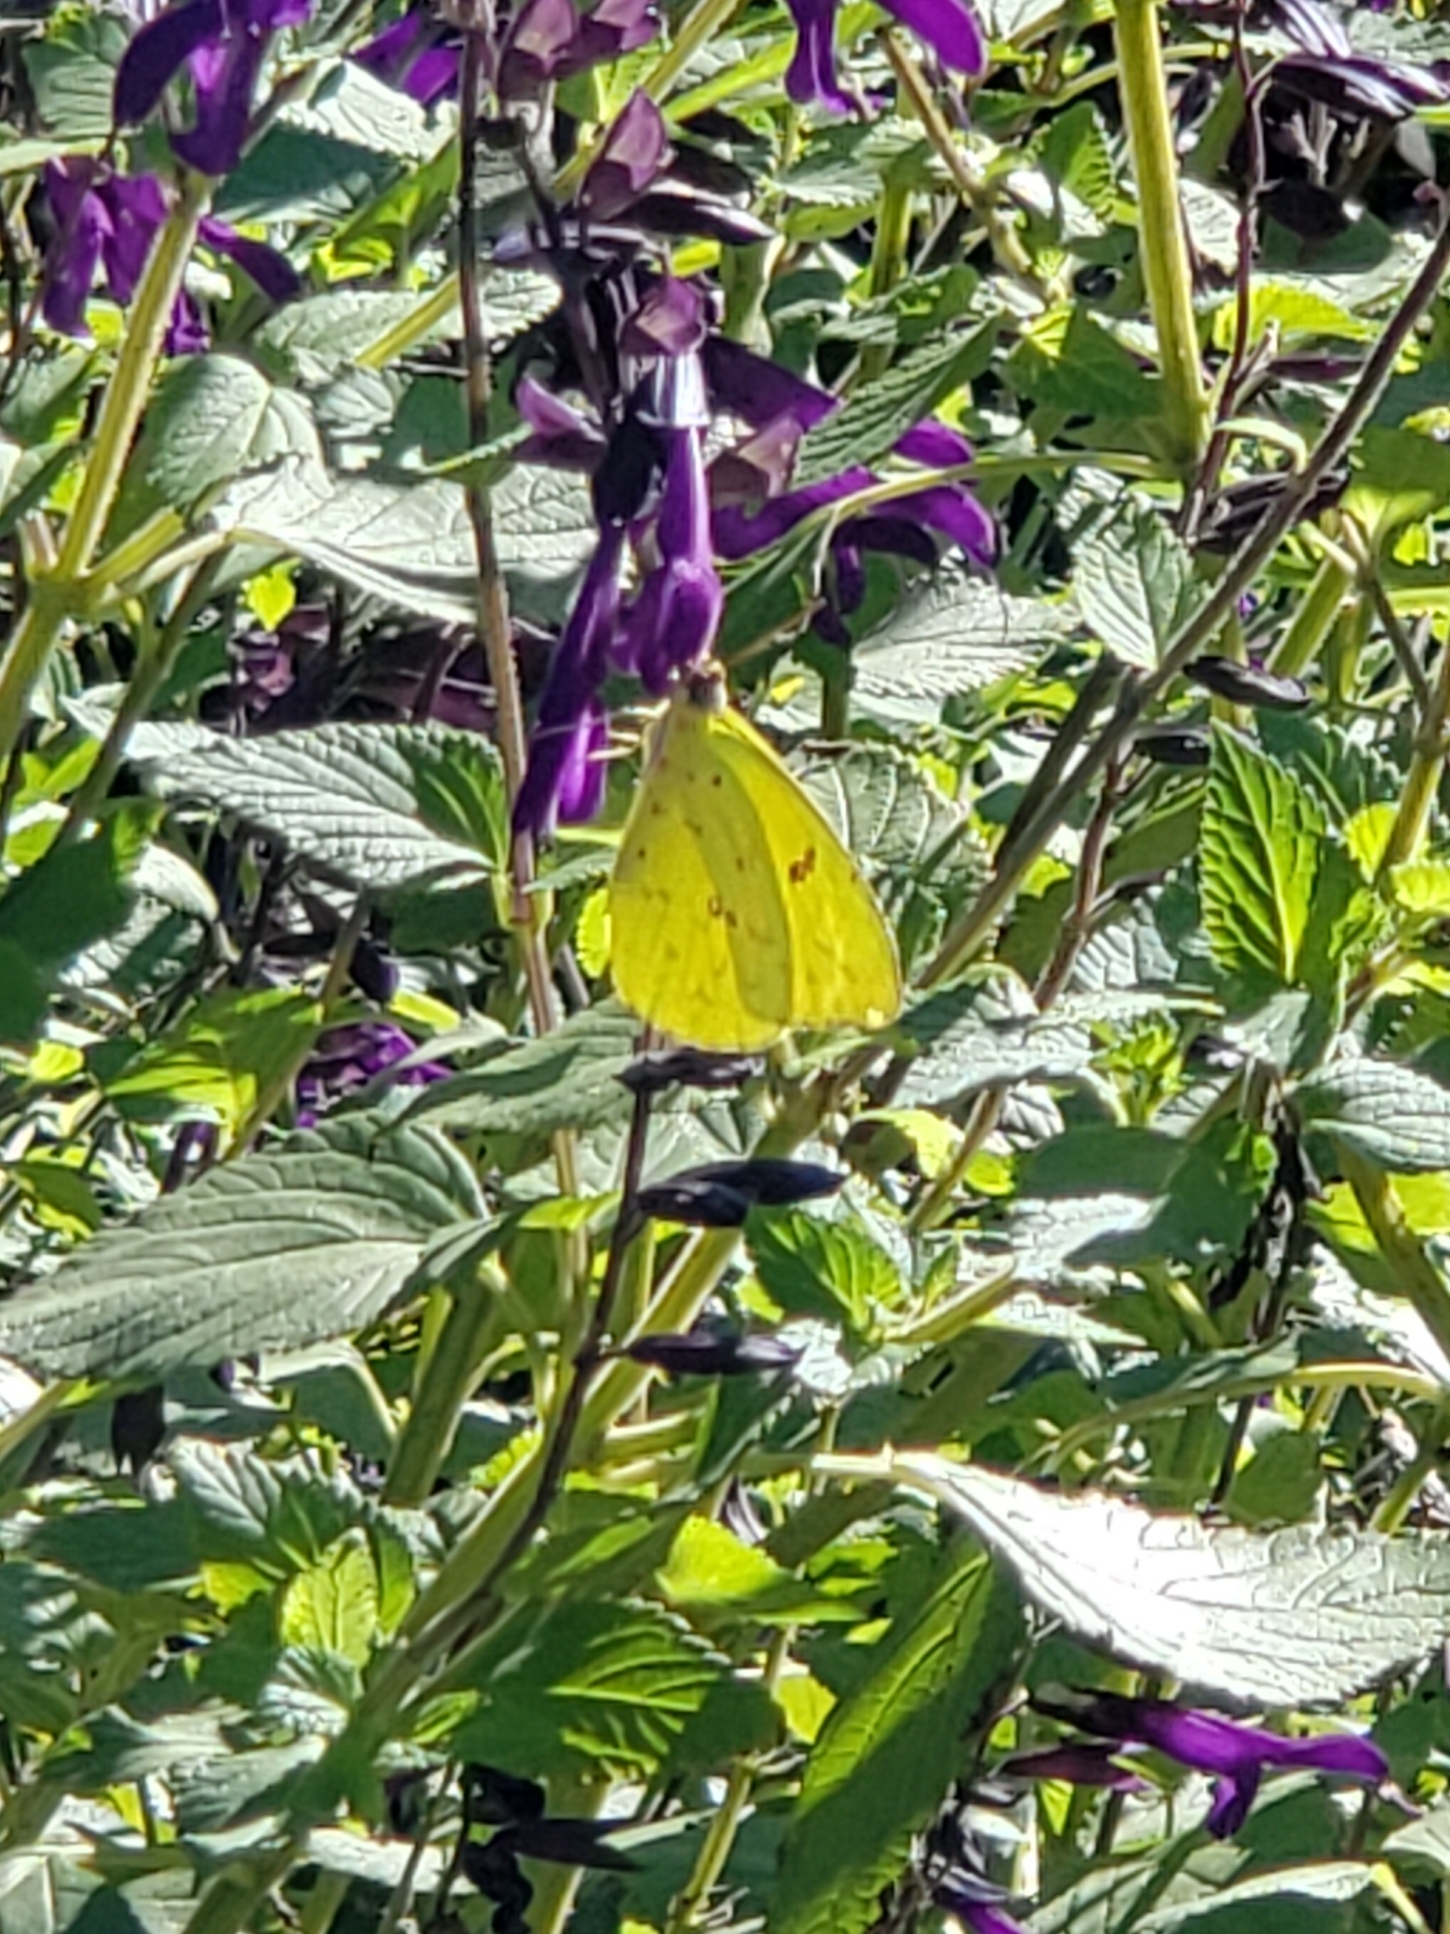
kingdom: Animalia
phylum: Arthropoda
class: Insecta
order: Lepidoptera
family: Pieridae
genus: Phoebis
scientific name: Phoebis sennae
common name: Cloudless sulphur
